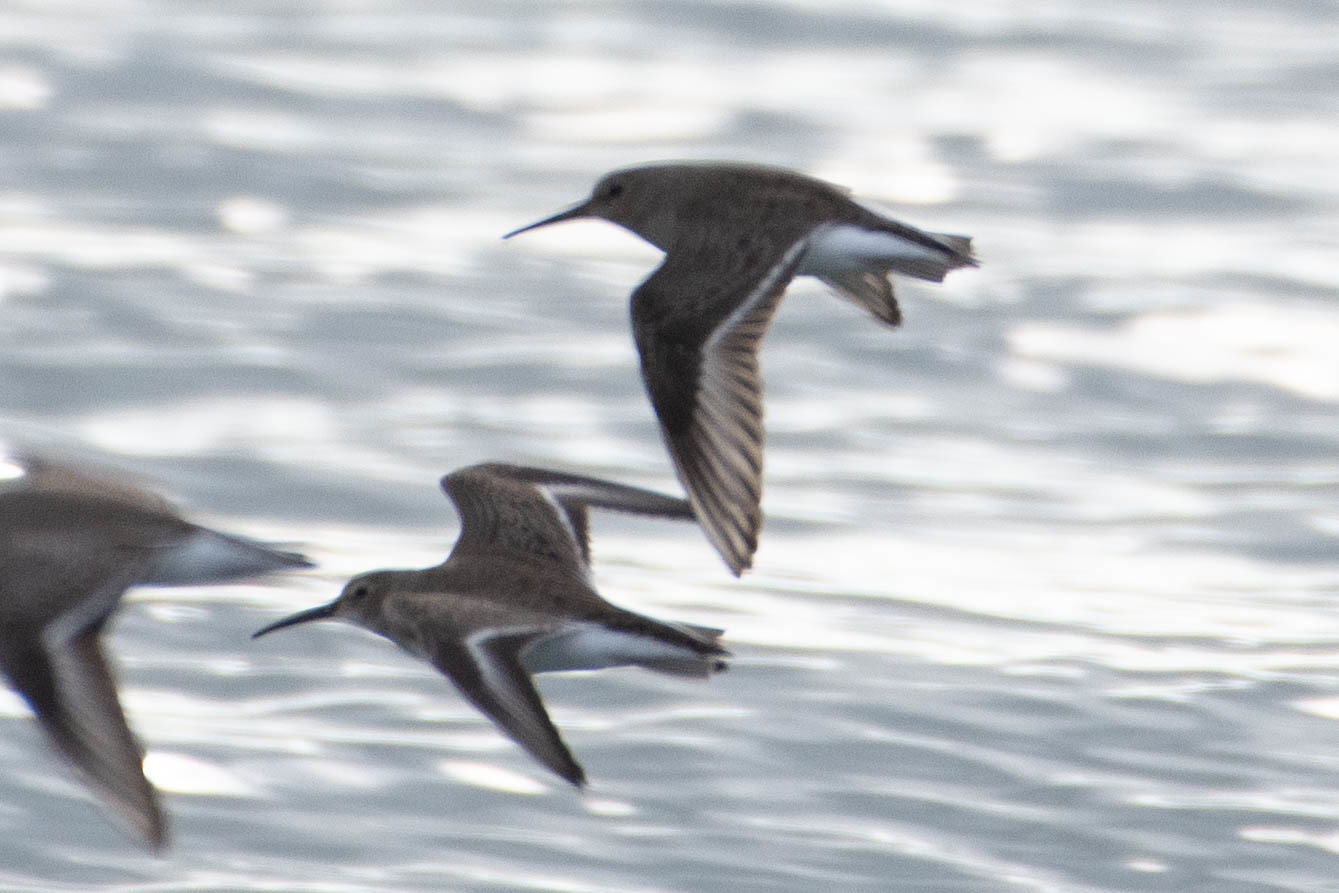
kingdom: Animalia
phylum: Chordata
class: Aves
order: Charadriiformes
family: Scolopacidae
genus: Calidris
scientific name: Calidris alpina
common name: Dunlin
